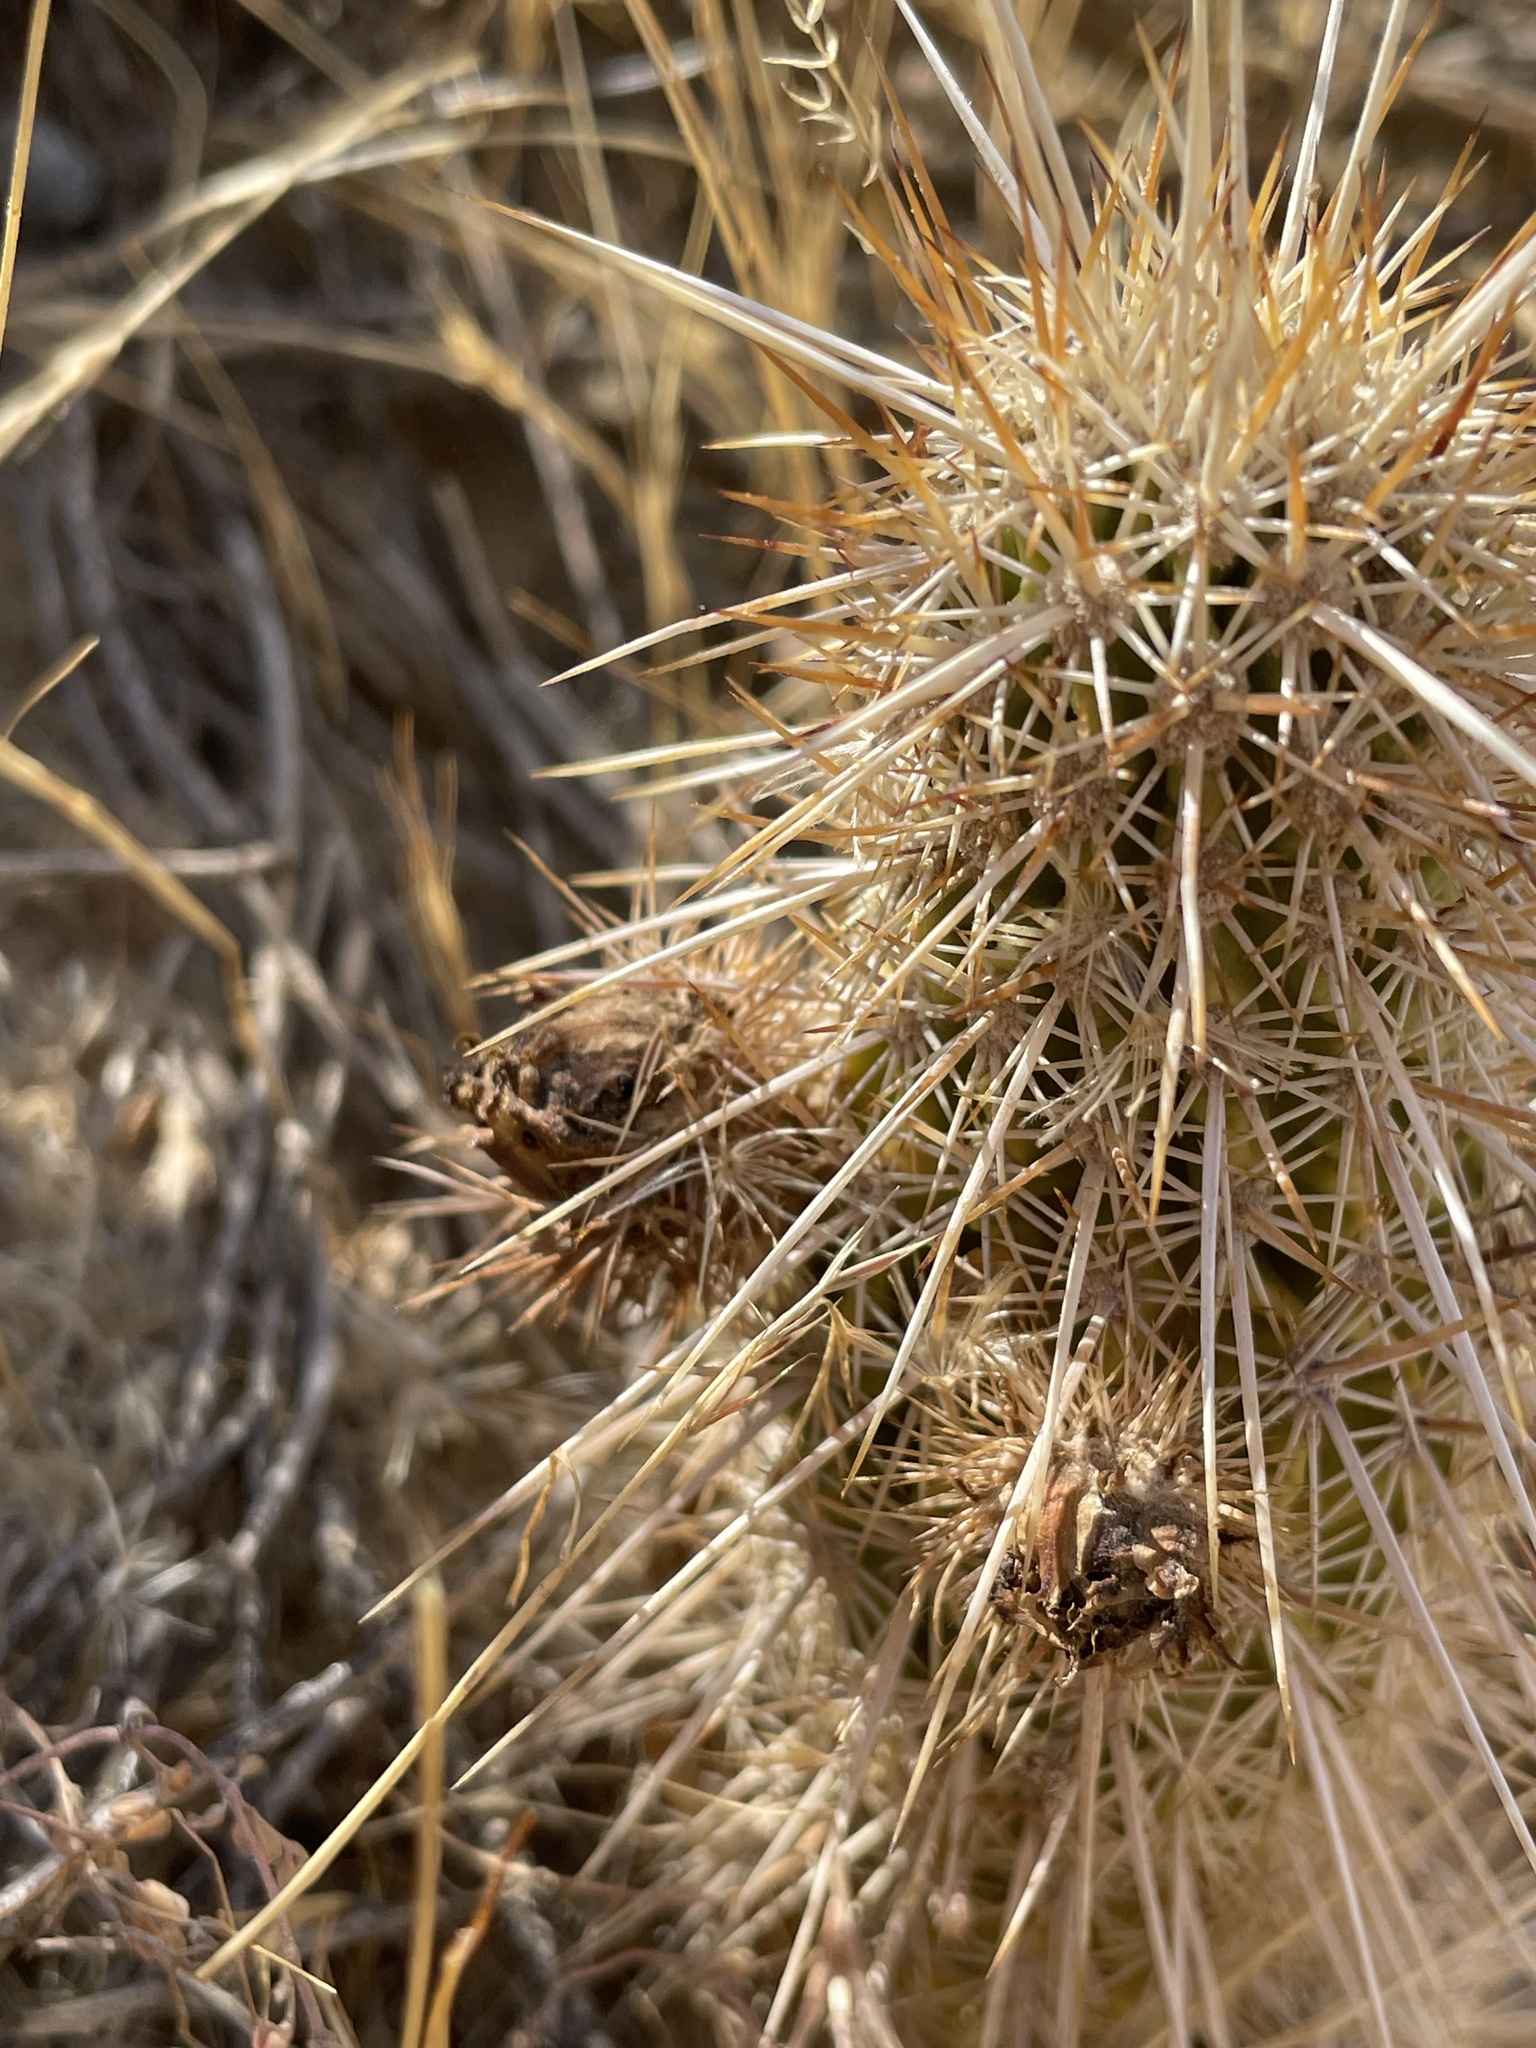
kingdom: Plantae
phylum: Tracheophyta
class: Magnoliopsida
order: Caryophyllales
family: Cactaceae
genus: Echinocereus
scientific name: Echinocereus fasciculatus
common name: Bundle hedgehog
